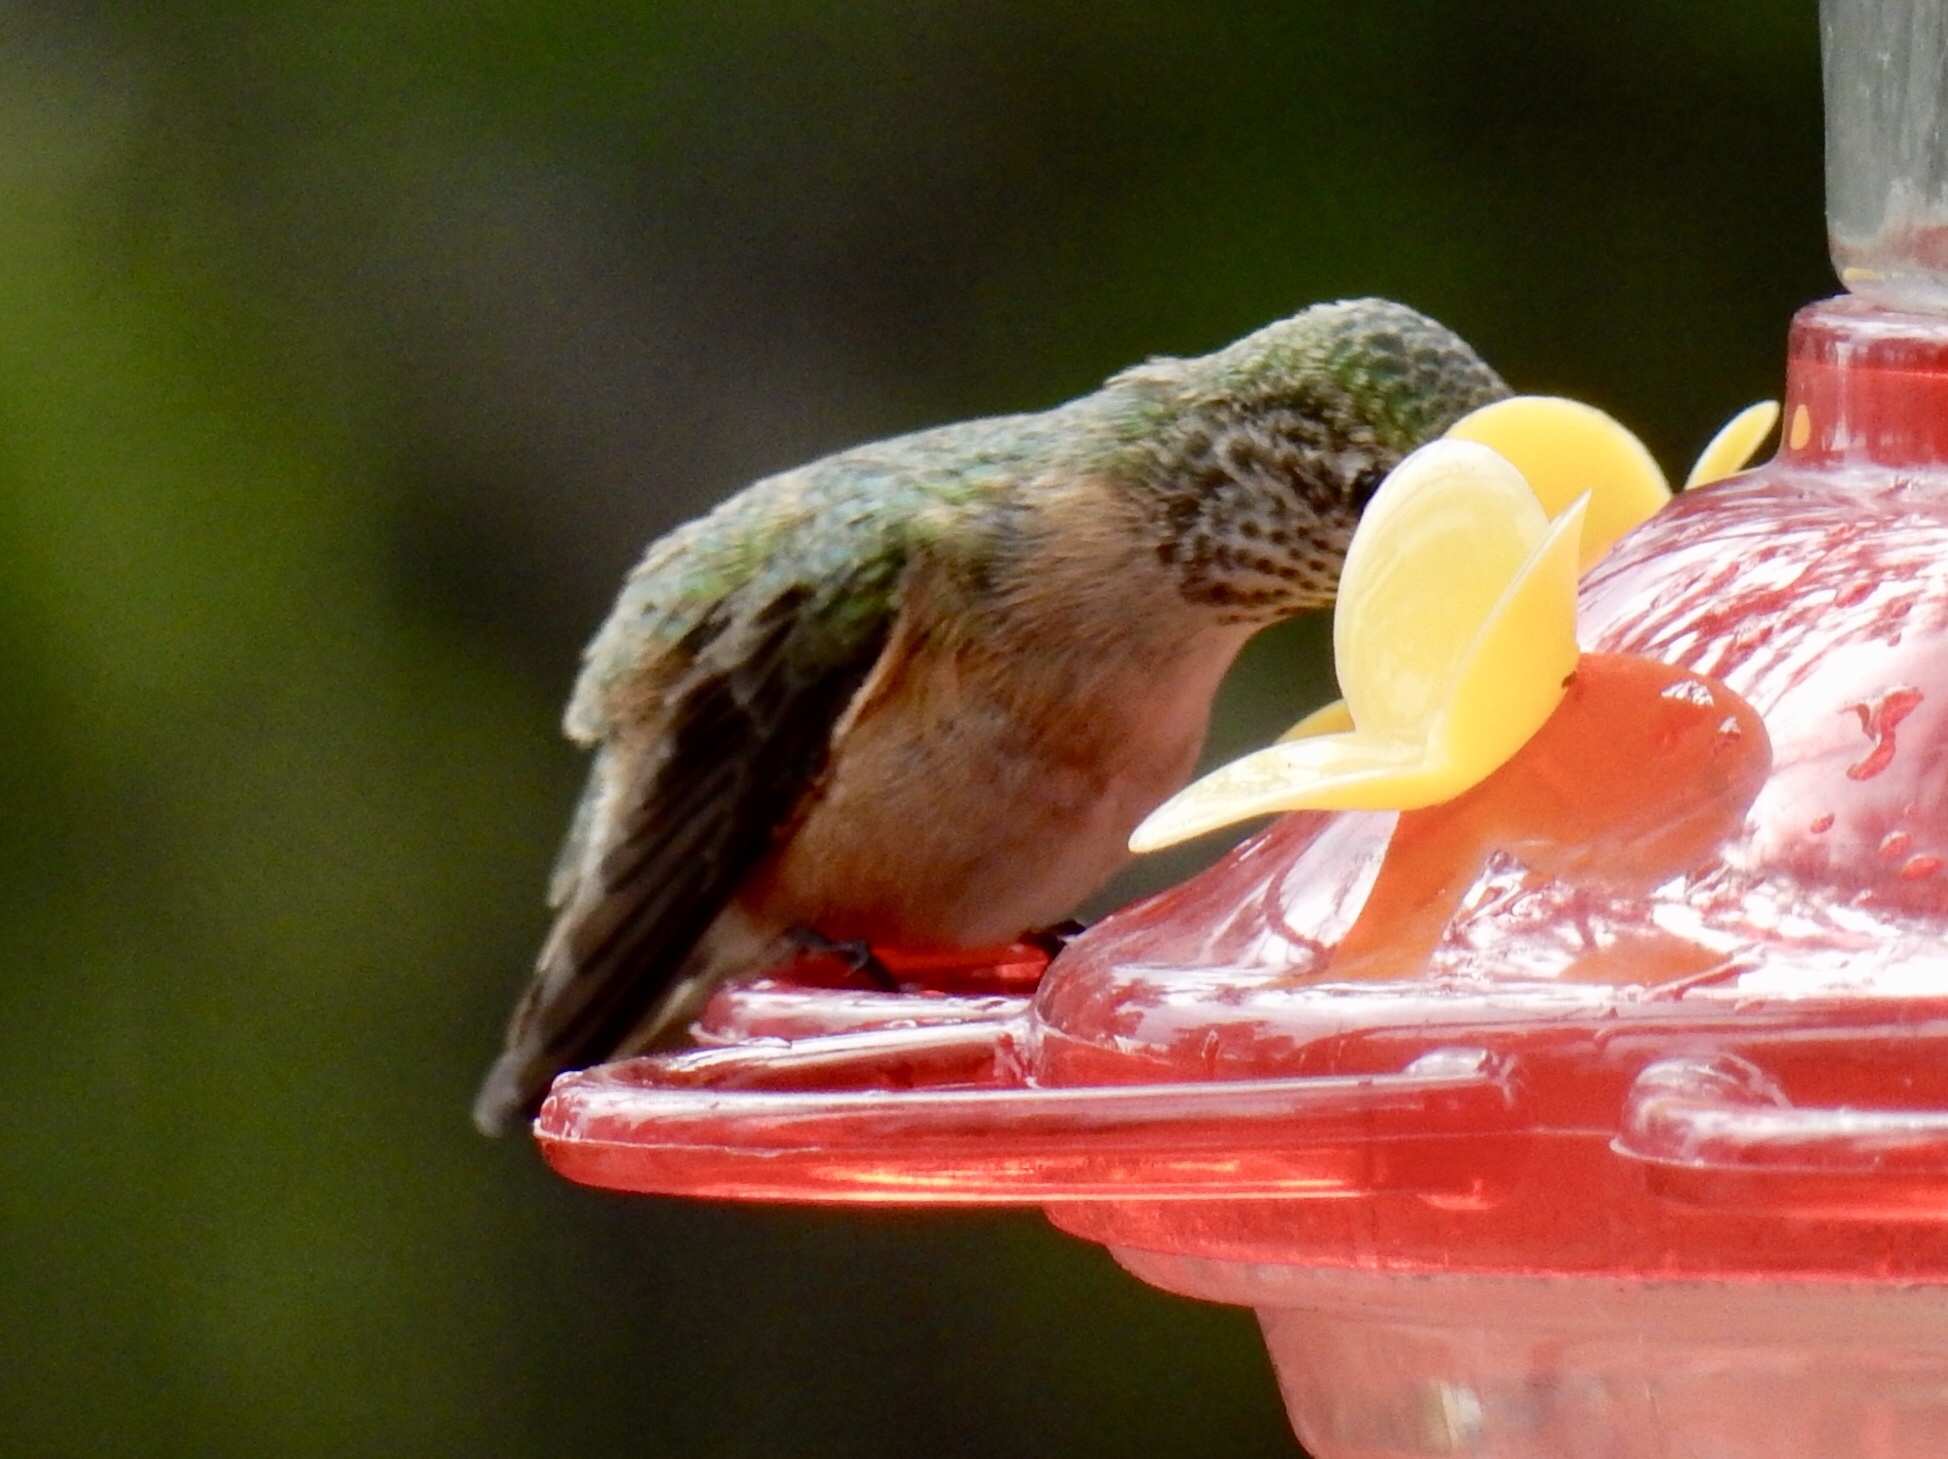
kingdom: Animalia
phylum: Chordata
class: Aves
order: Apodiformes
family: Trochilidae
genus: Selasphorus
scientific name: Selasphorus platycercus
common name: Broad-tailed hummingbird
